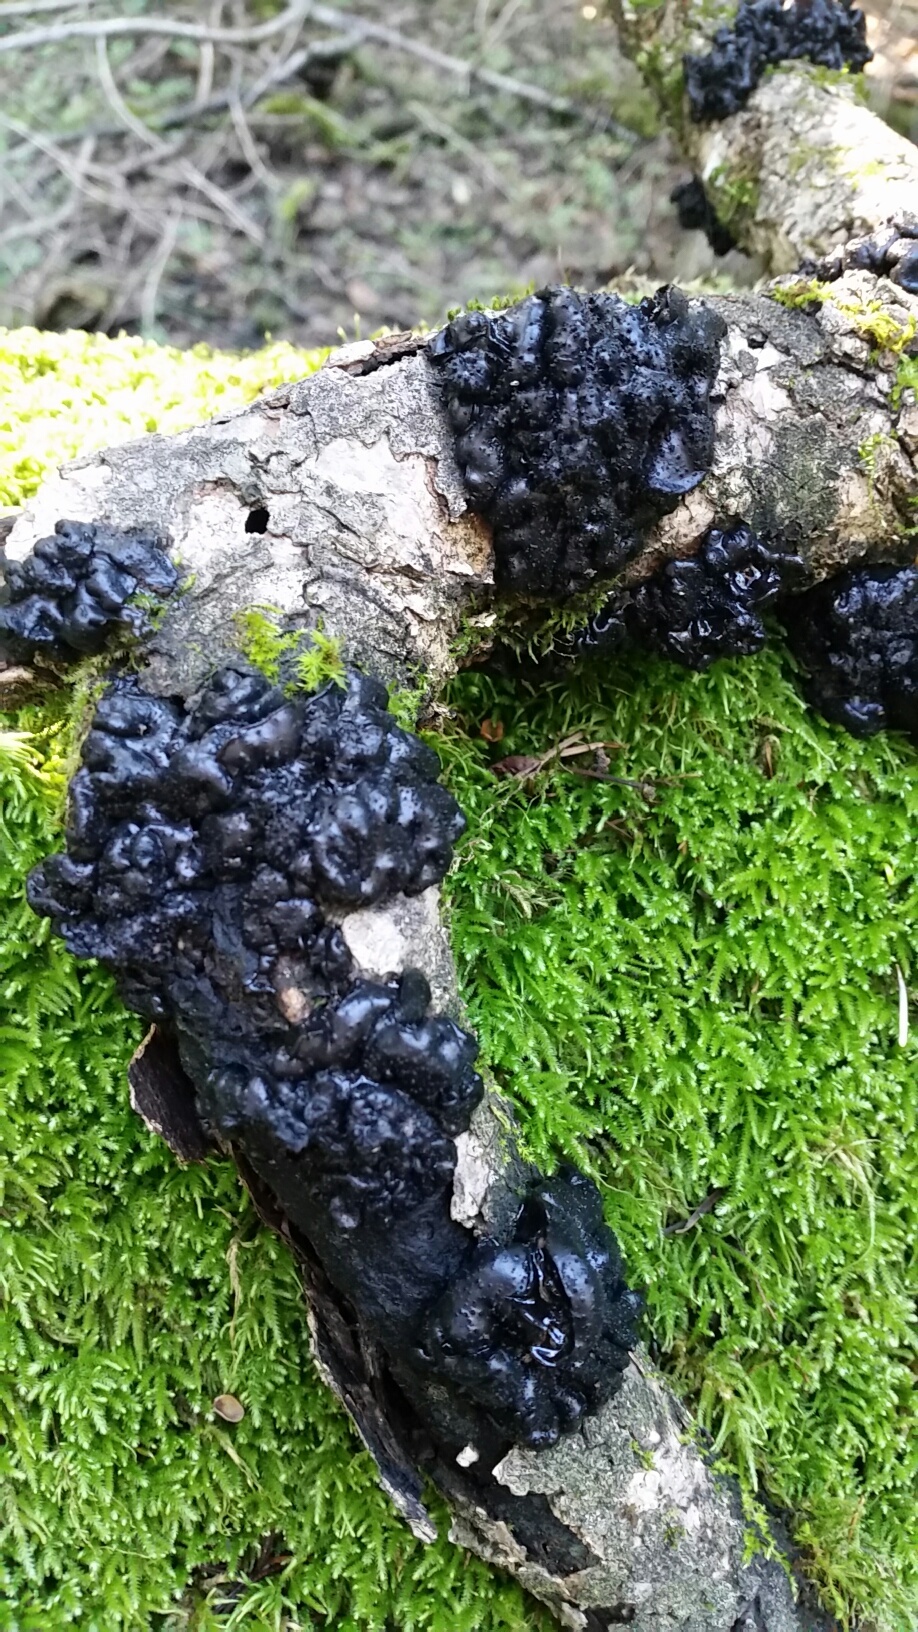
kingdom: Fungi
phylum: Basidiomycota
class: Agaricomycetes
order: Auriculariales
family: Auriculariaceae
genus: Exidia
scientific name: Exidia glandulosa
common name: Witches' butter
